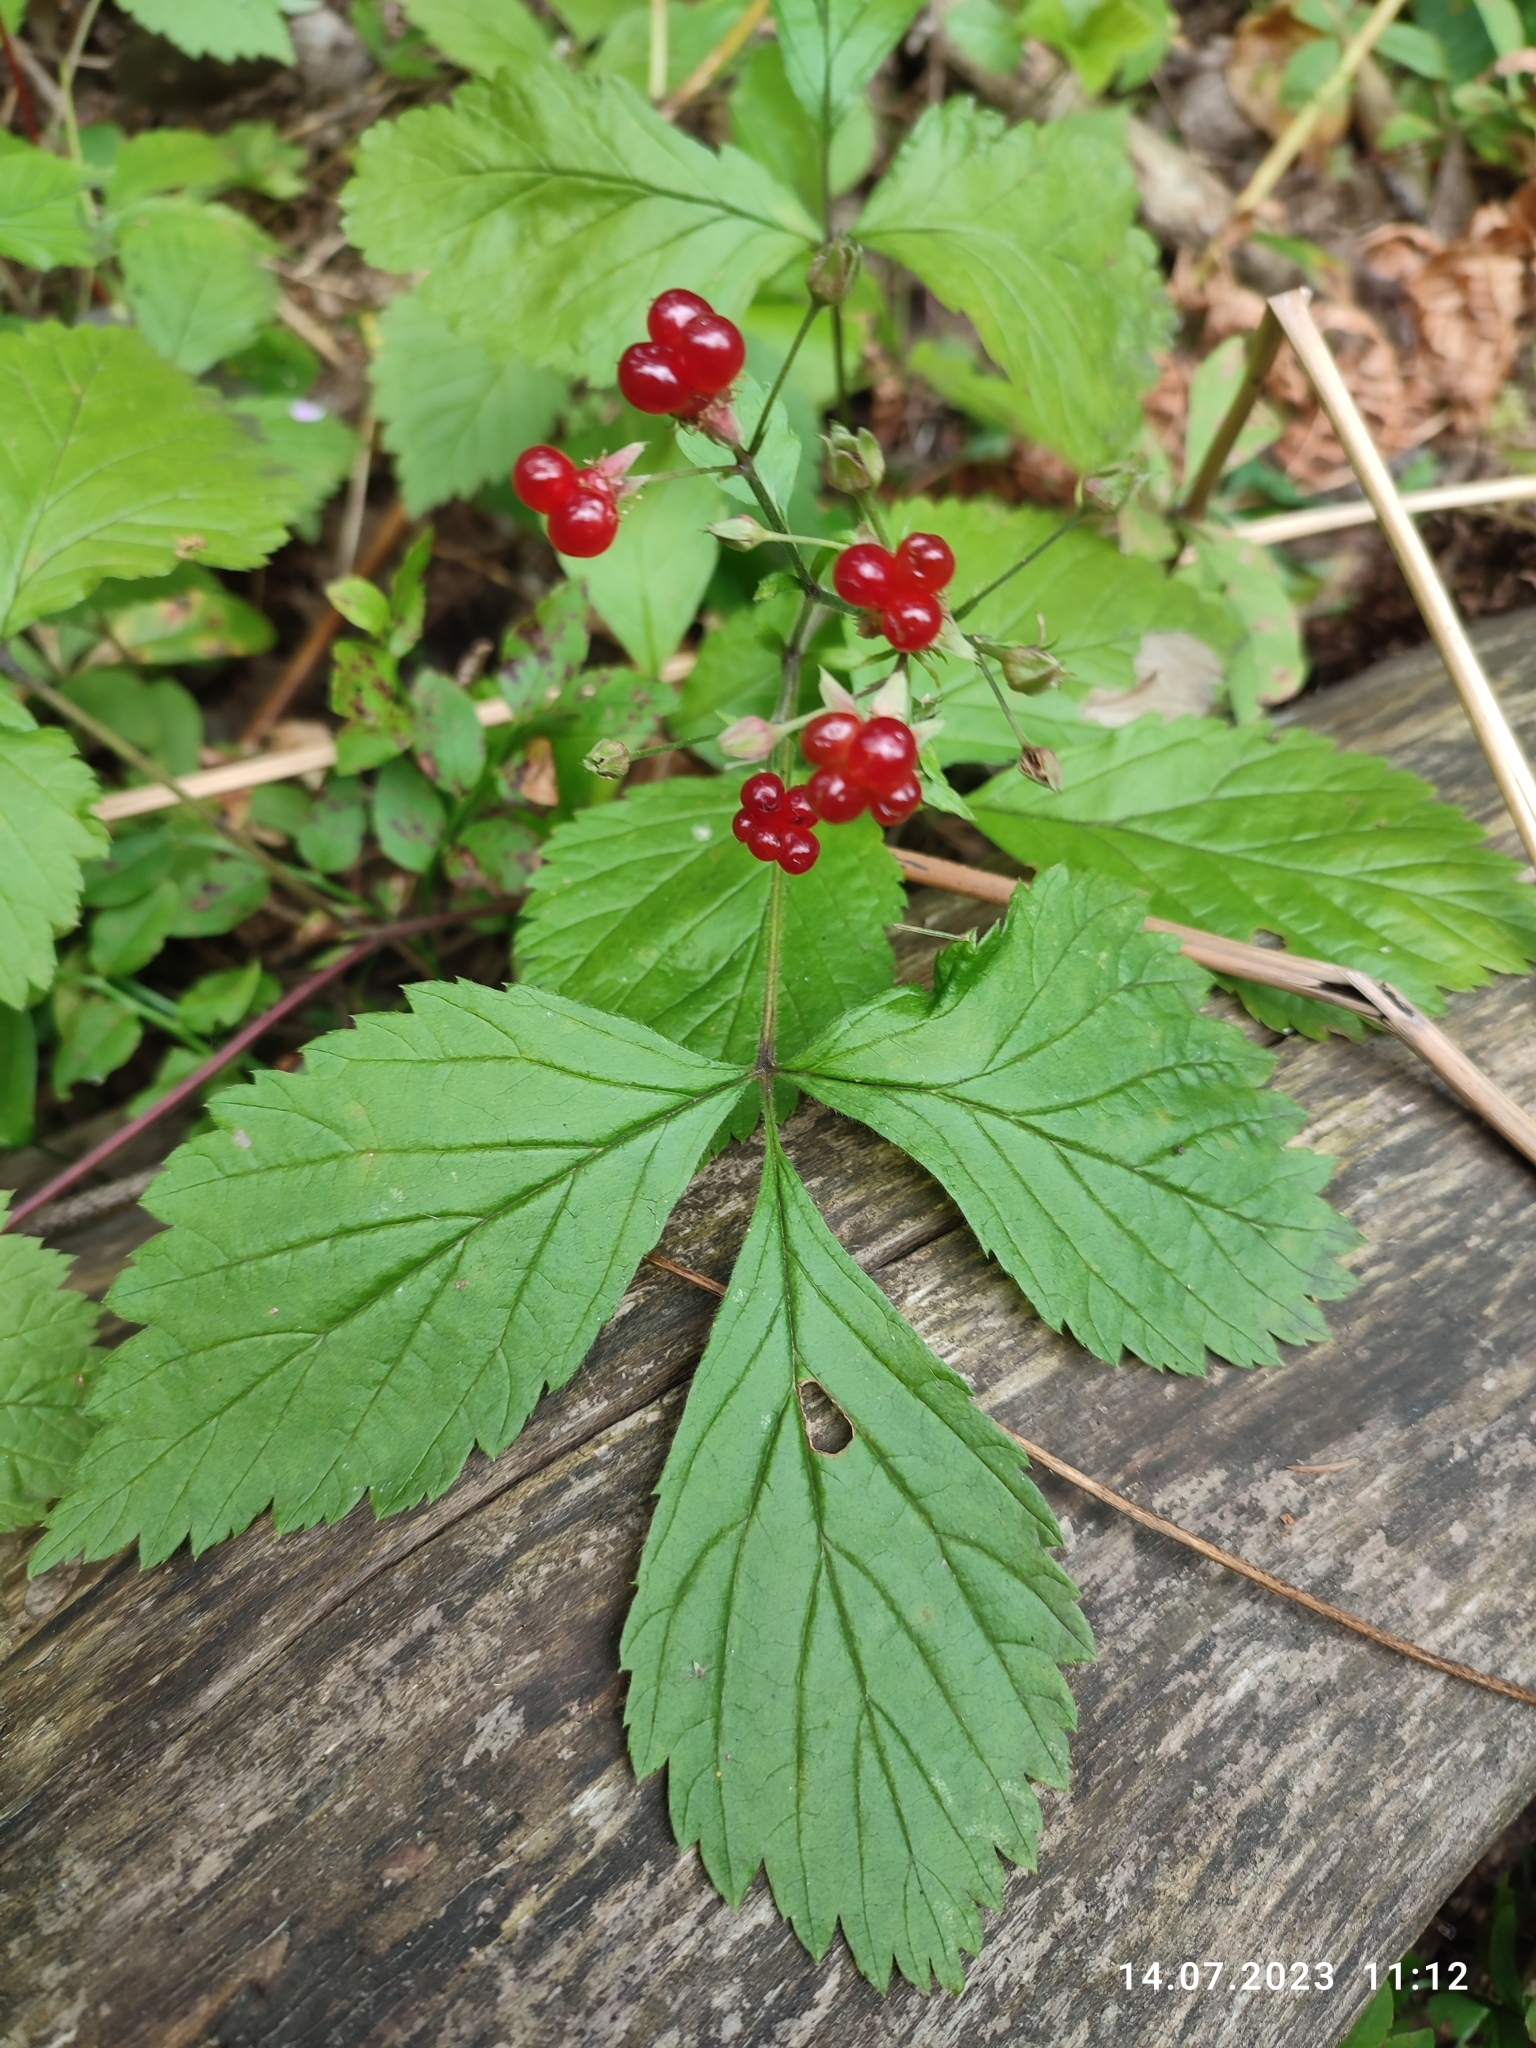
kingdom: Plantae
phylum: Tracheophyta
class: Magnoliopsida
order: Rosales
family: Rosaceae
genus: Rubus
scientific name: Rubus saxatilis
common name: Stone bramble
